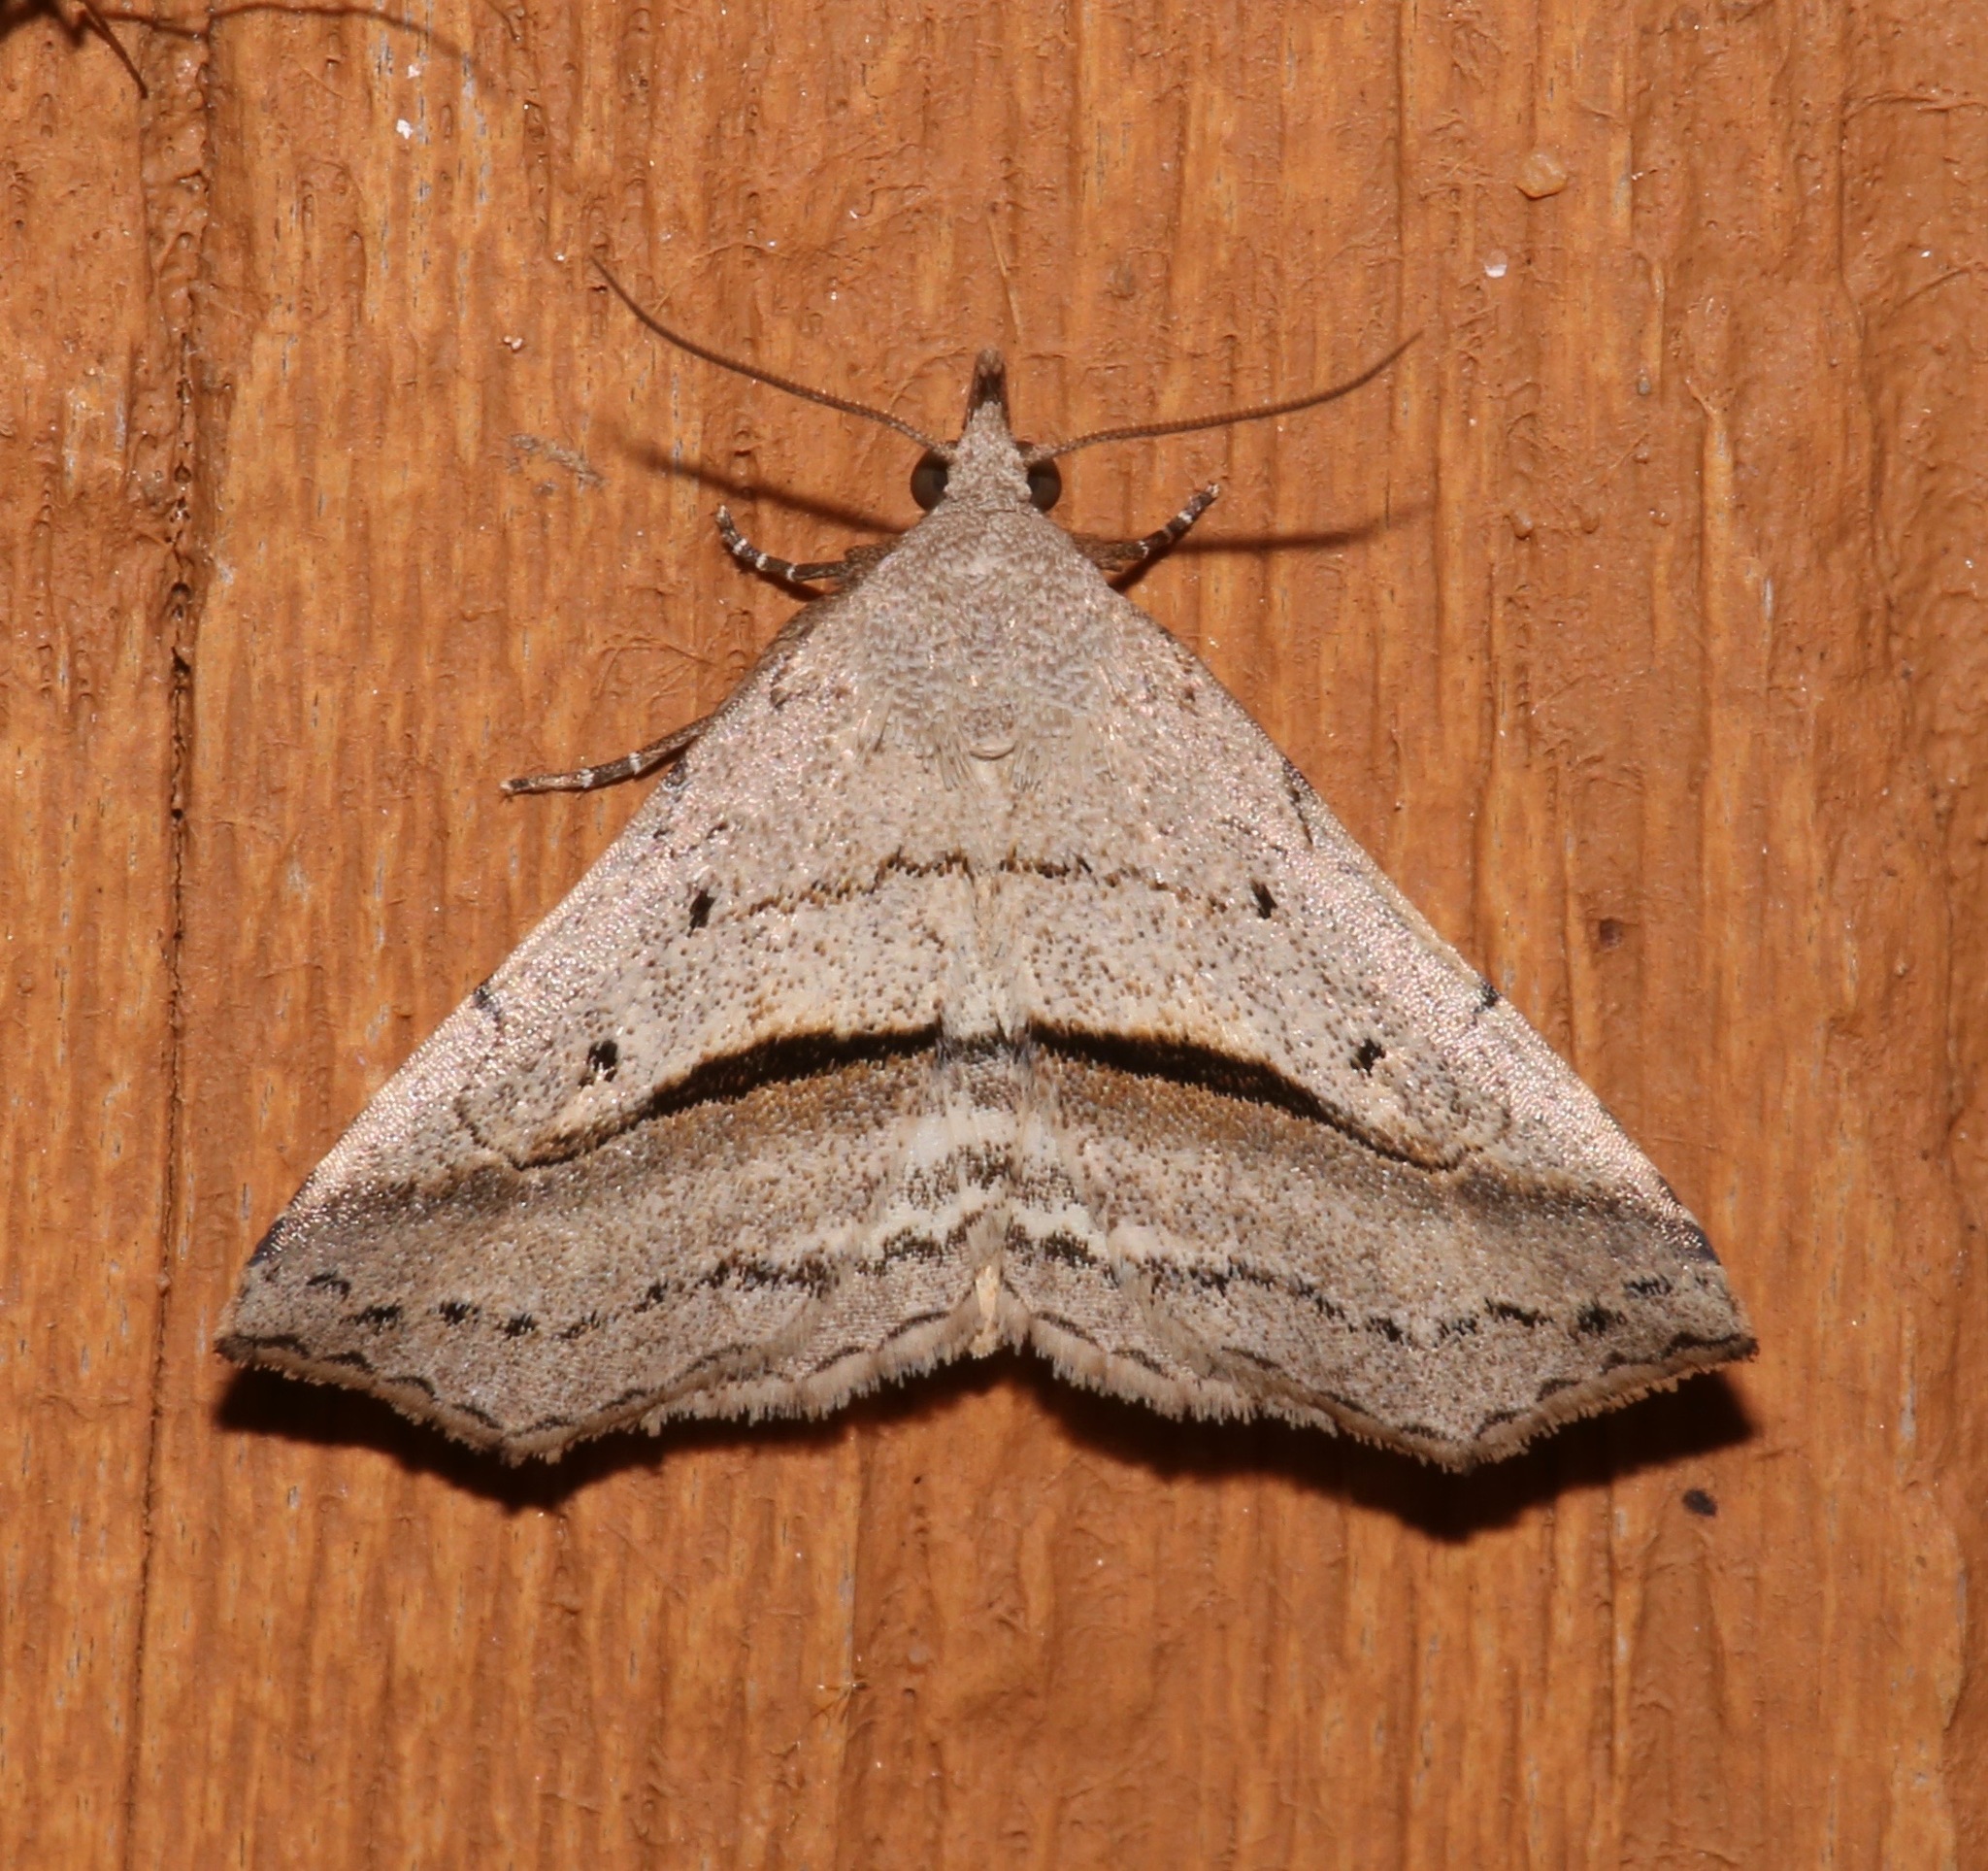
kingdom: Animalia
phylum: Arthropoda
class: Insecta
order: Lepidoptera
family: Erebidae
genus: Spargaloma
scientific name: Spargaloma perditalis
